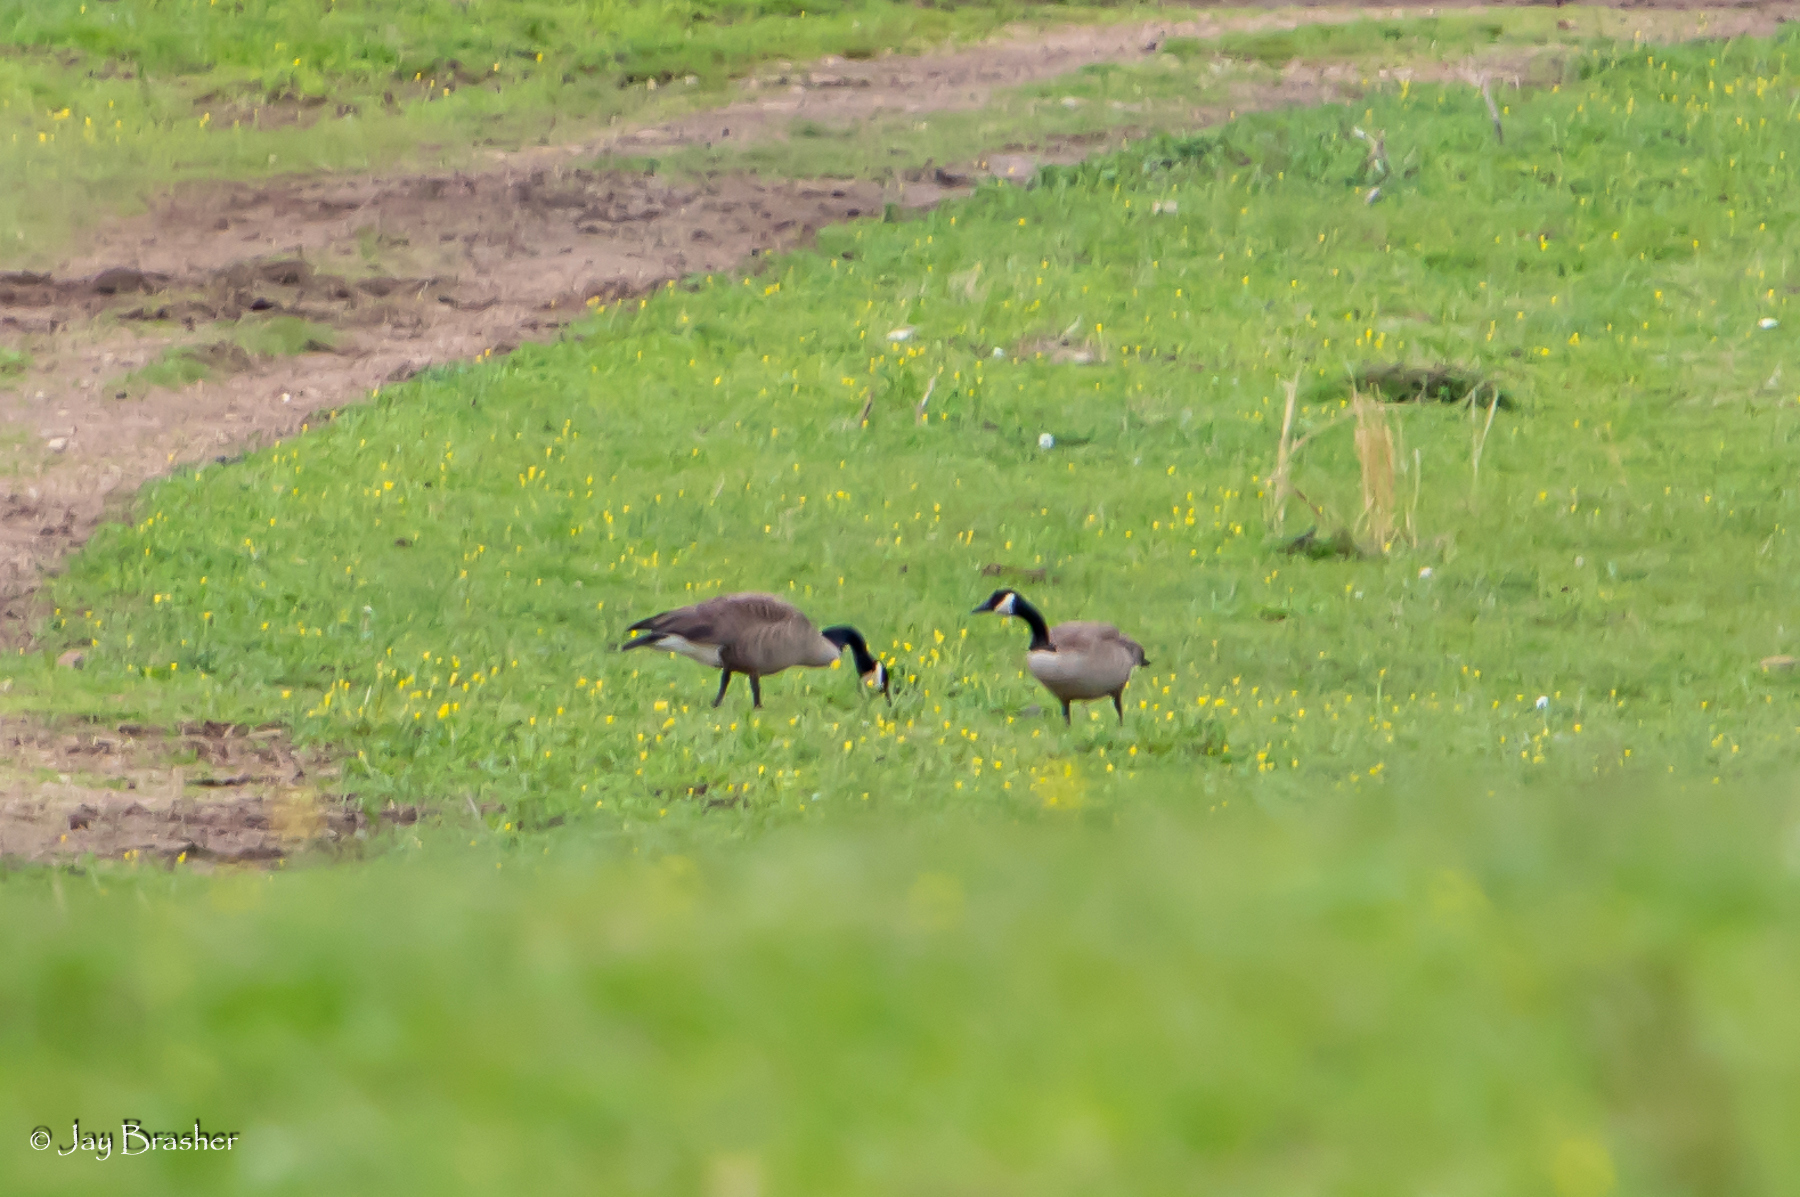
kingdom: Animalia
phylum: Chordata
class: Aves
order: Anseriformes
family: Anatidae
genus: Branta
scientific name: Branta canadensis
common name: Canada goose
